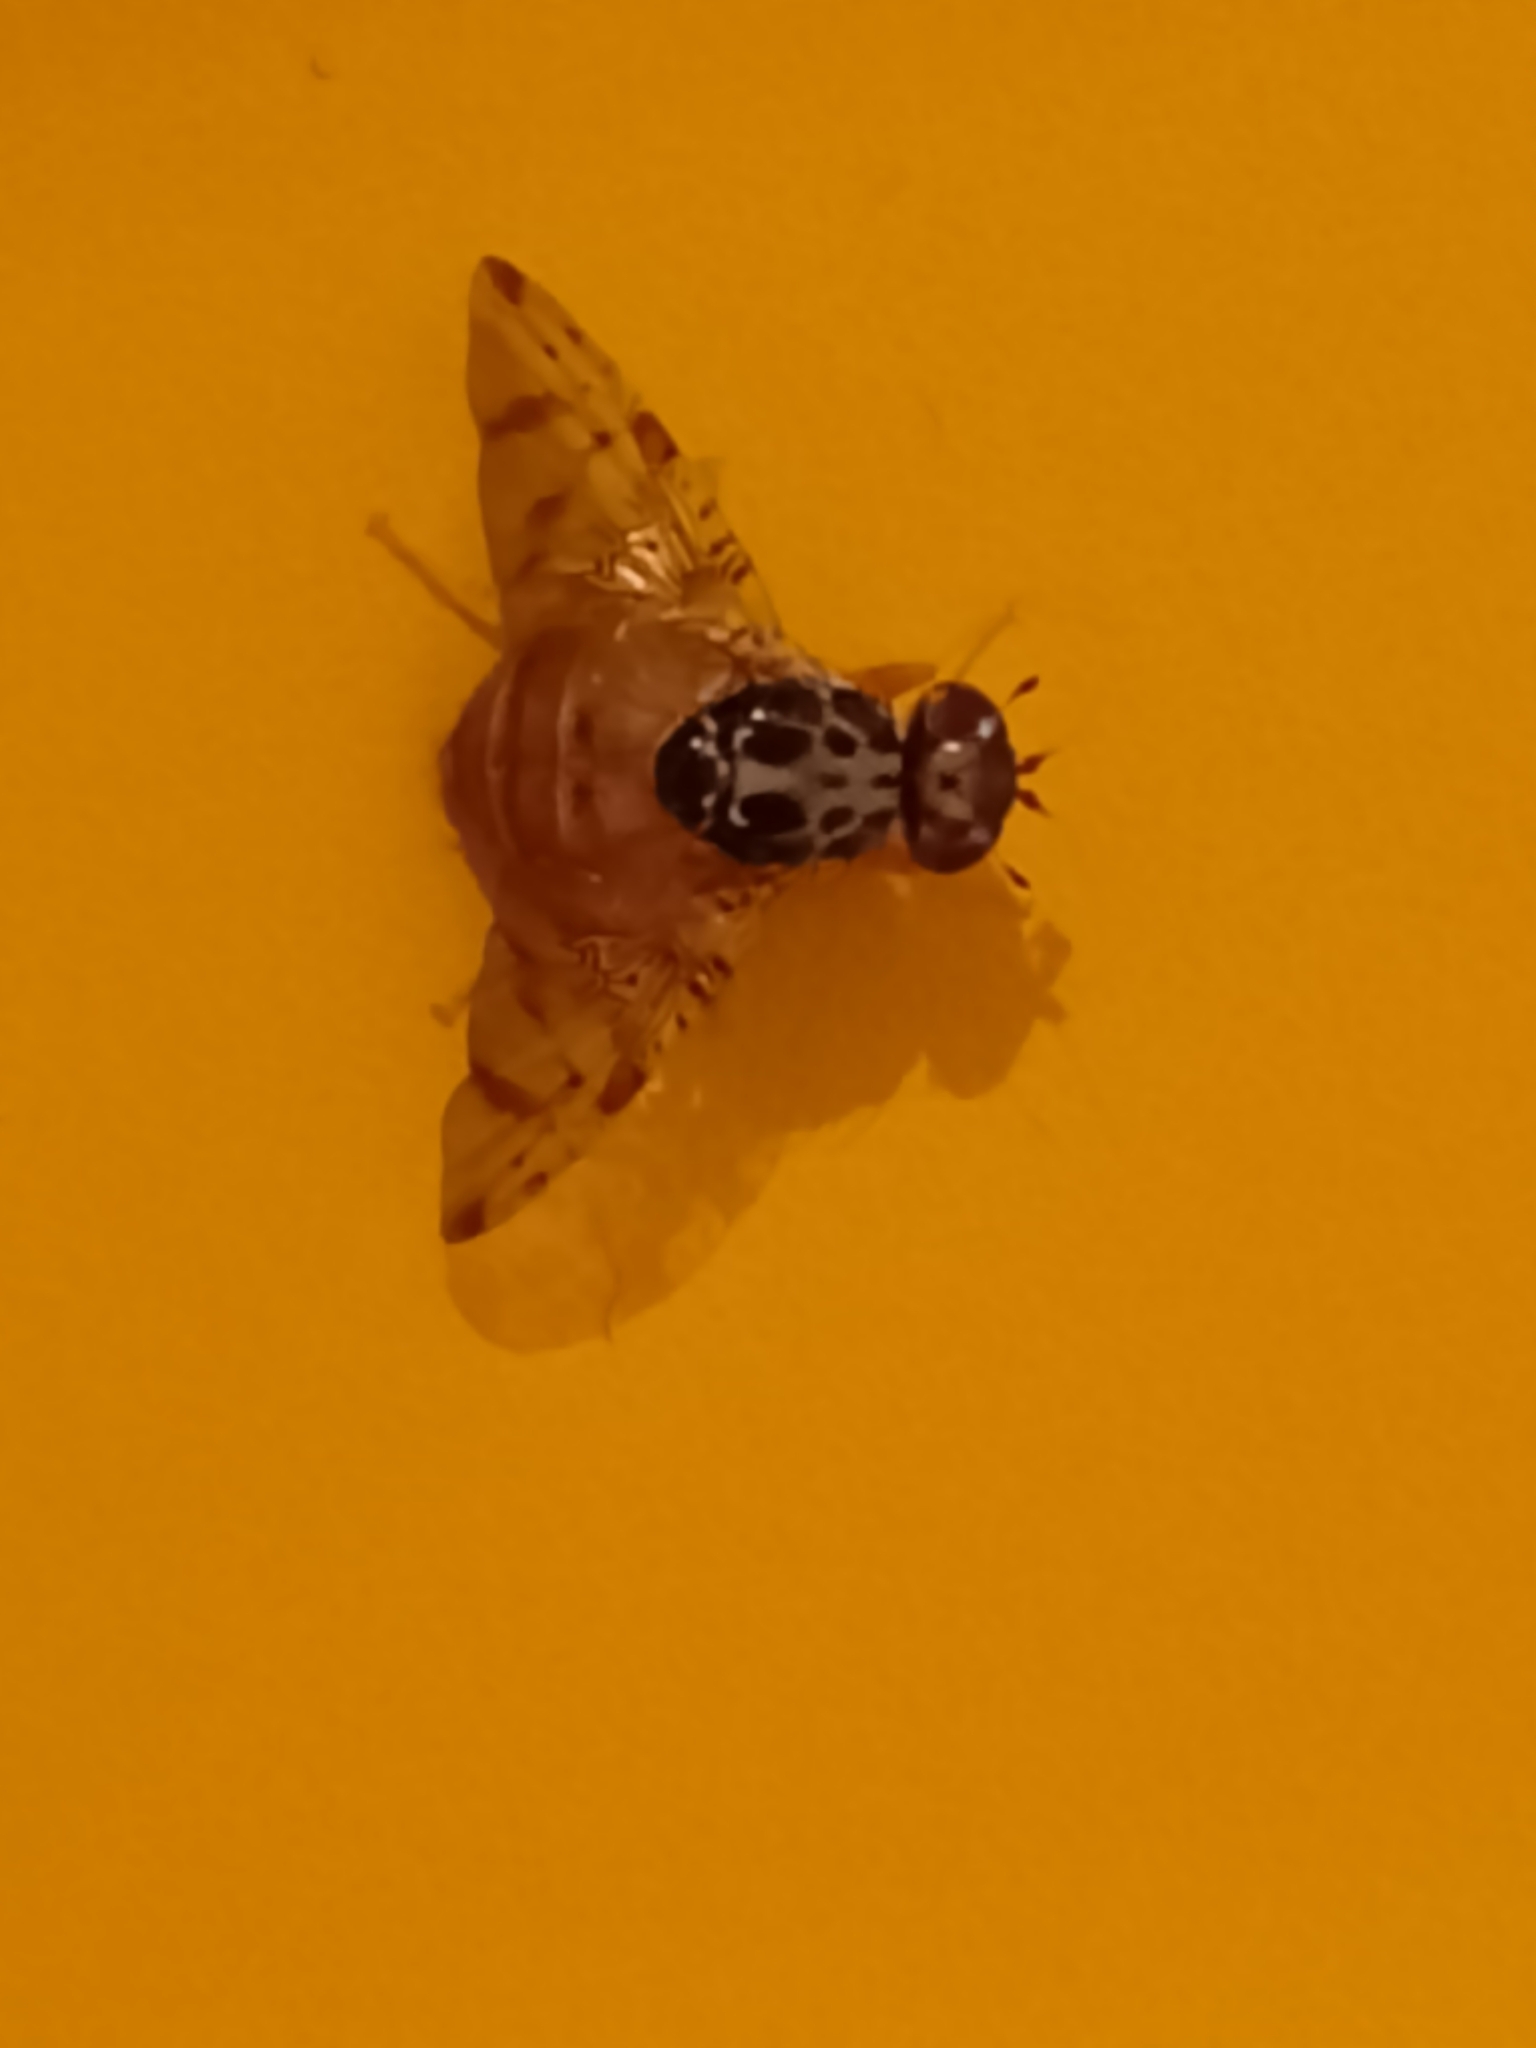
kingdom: Animalia
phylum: Arthropoda
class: Insecta
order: Diptera
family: Tephritidae
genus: Ceratitis
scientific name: Ceratitis capitata
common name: Mediterranean fruit fly
